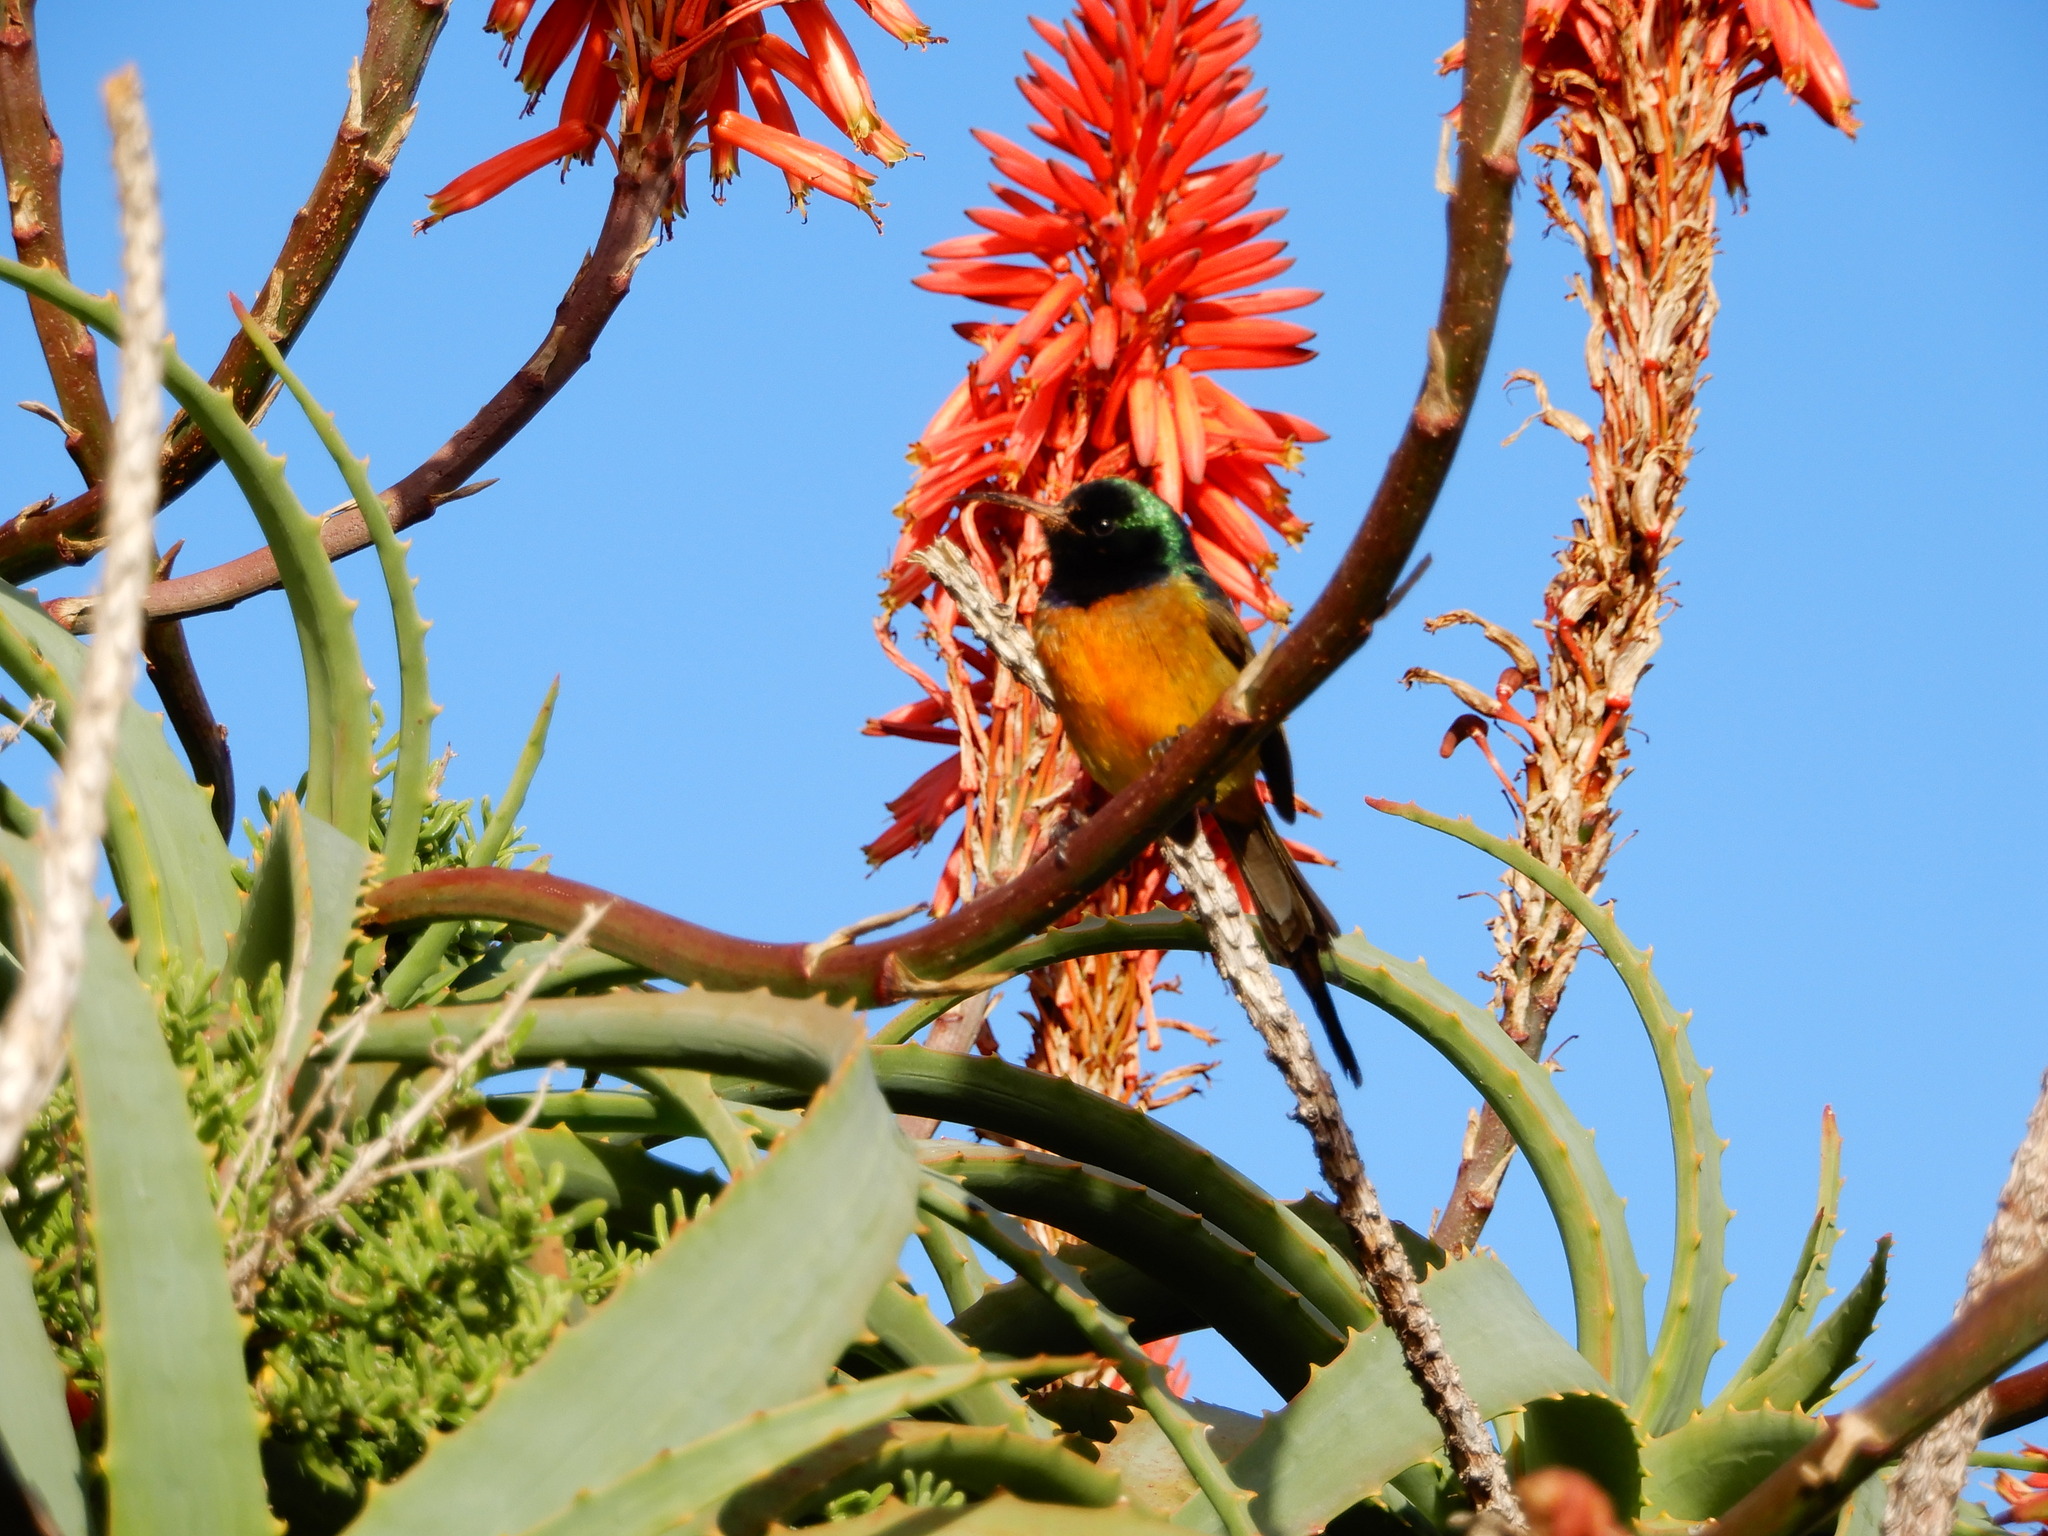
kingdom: Animalia
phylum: Chordata
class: Aves
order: Passeriformes
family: Nectariniidae
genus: Anthobaphes
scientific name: Anthobaphes violacea
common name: Orange-breasted sunbird
